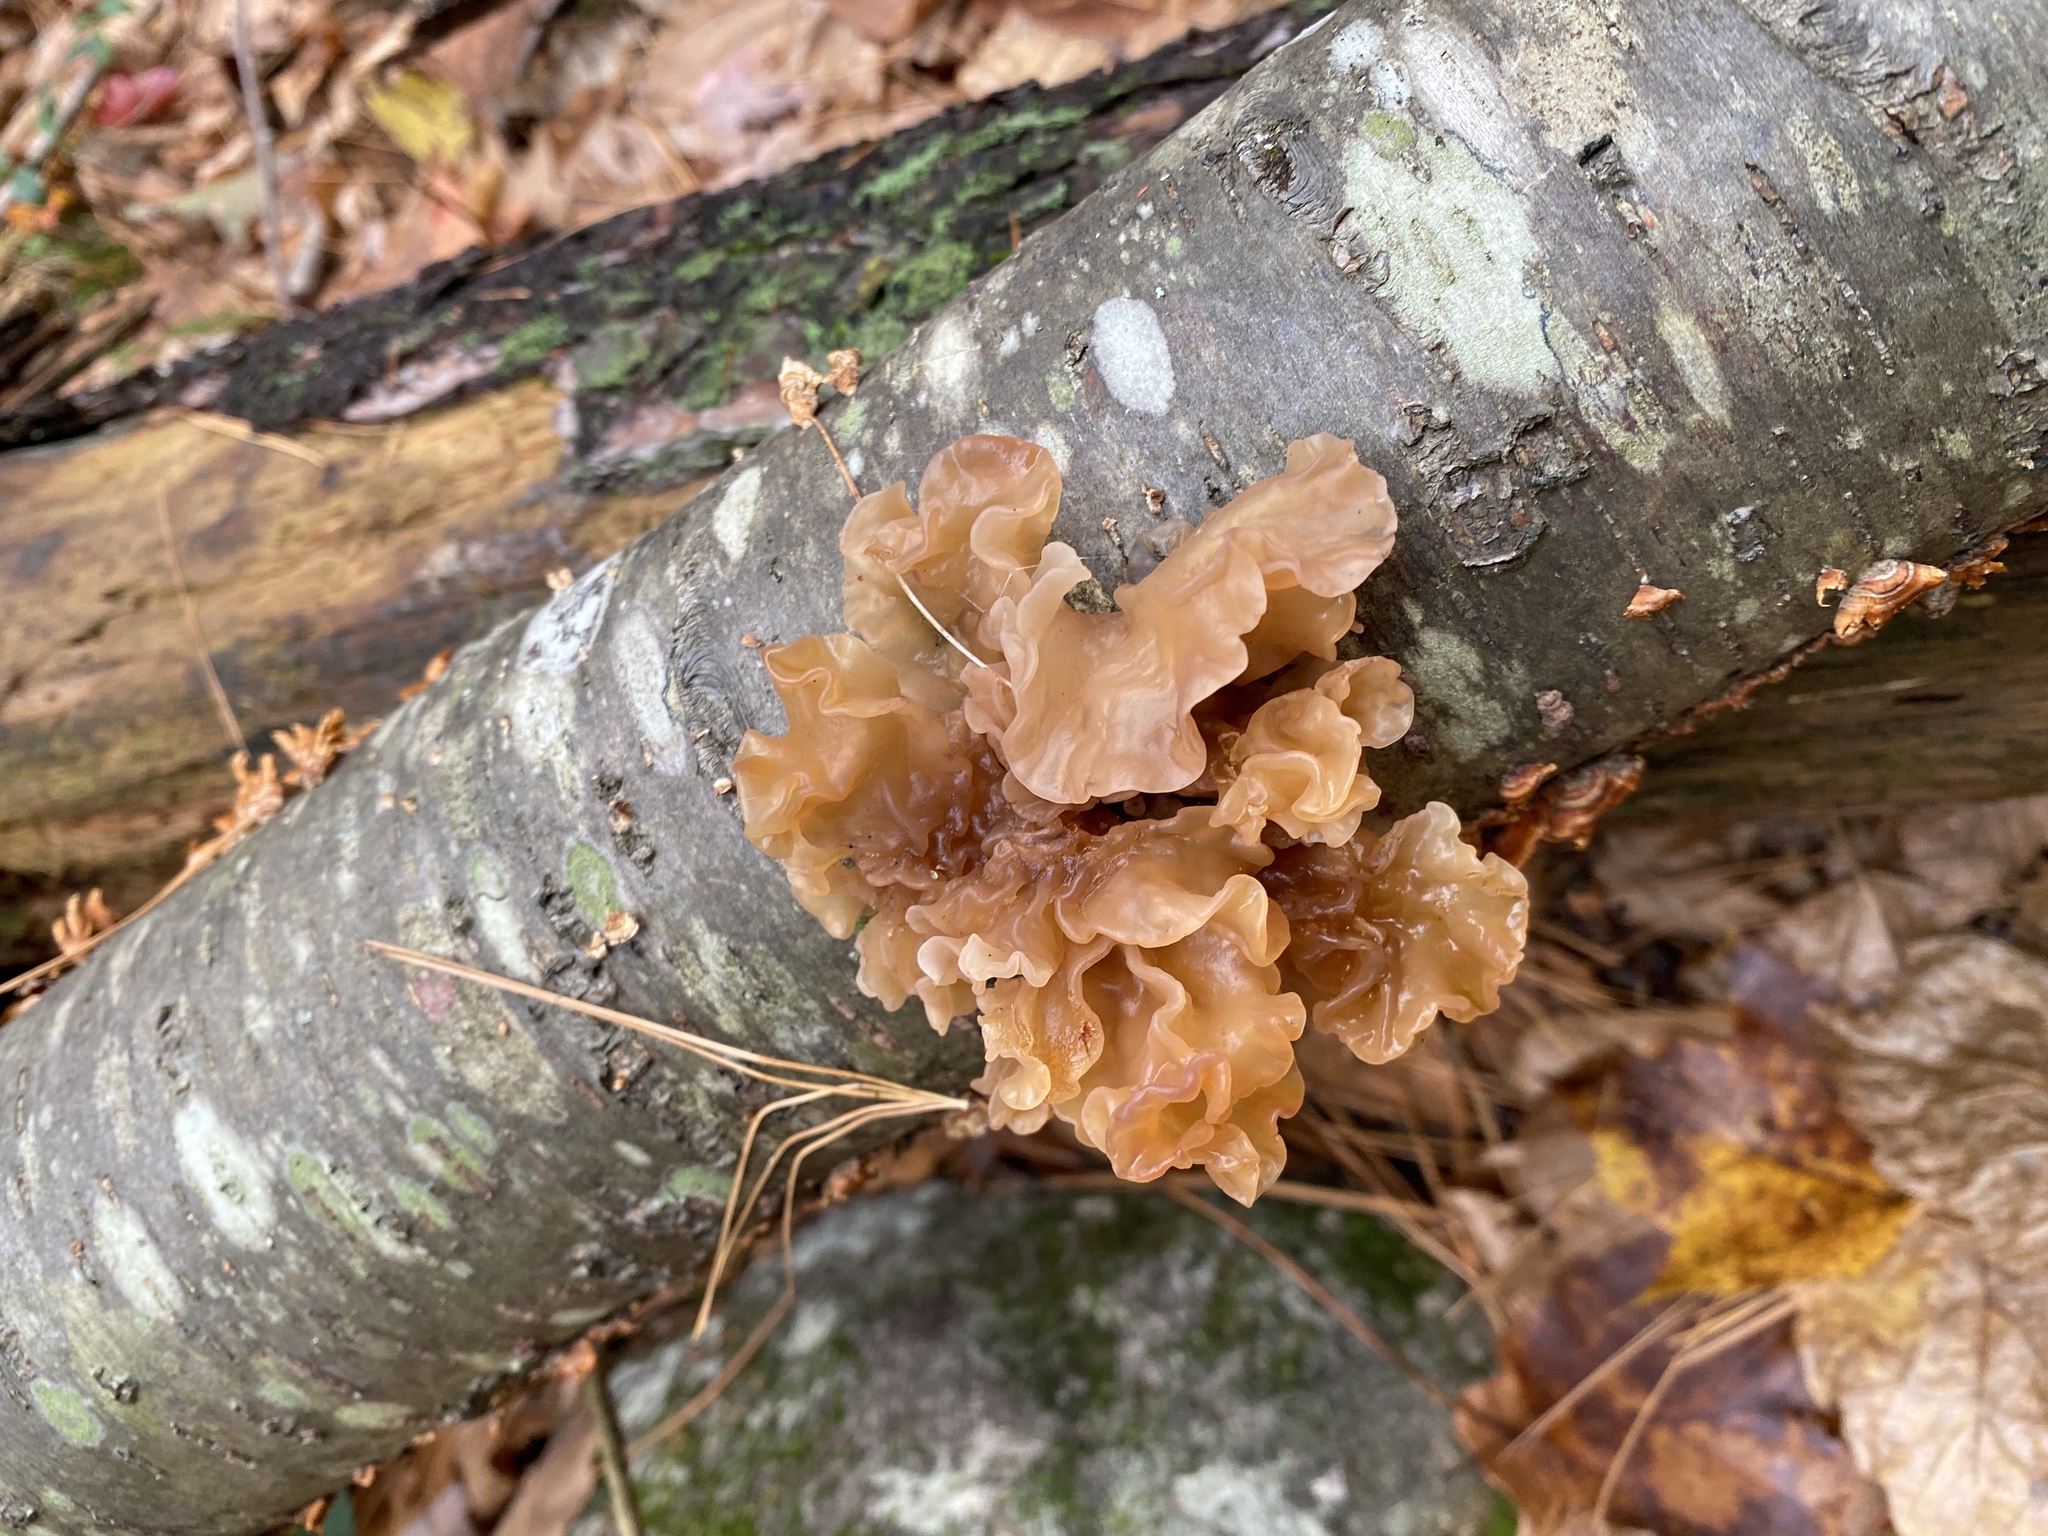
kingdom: Fungi
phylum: Basidiomycota
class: Tremellomycetes
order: Tremellales
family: Tremellaceae
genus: Phaeotremella
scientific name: Phaeotremella frondosa
